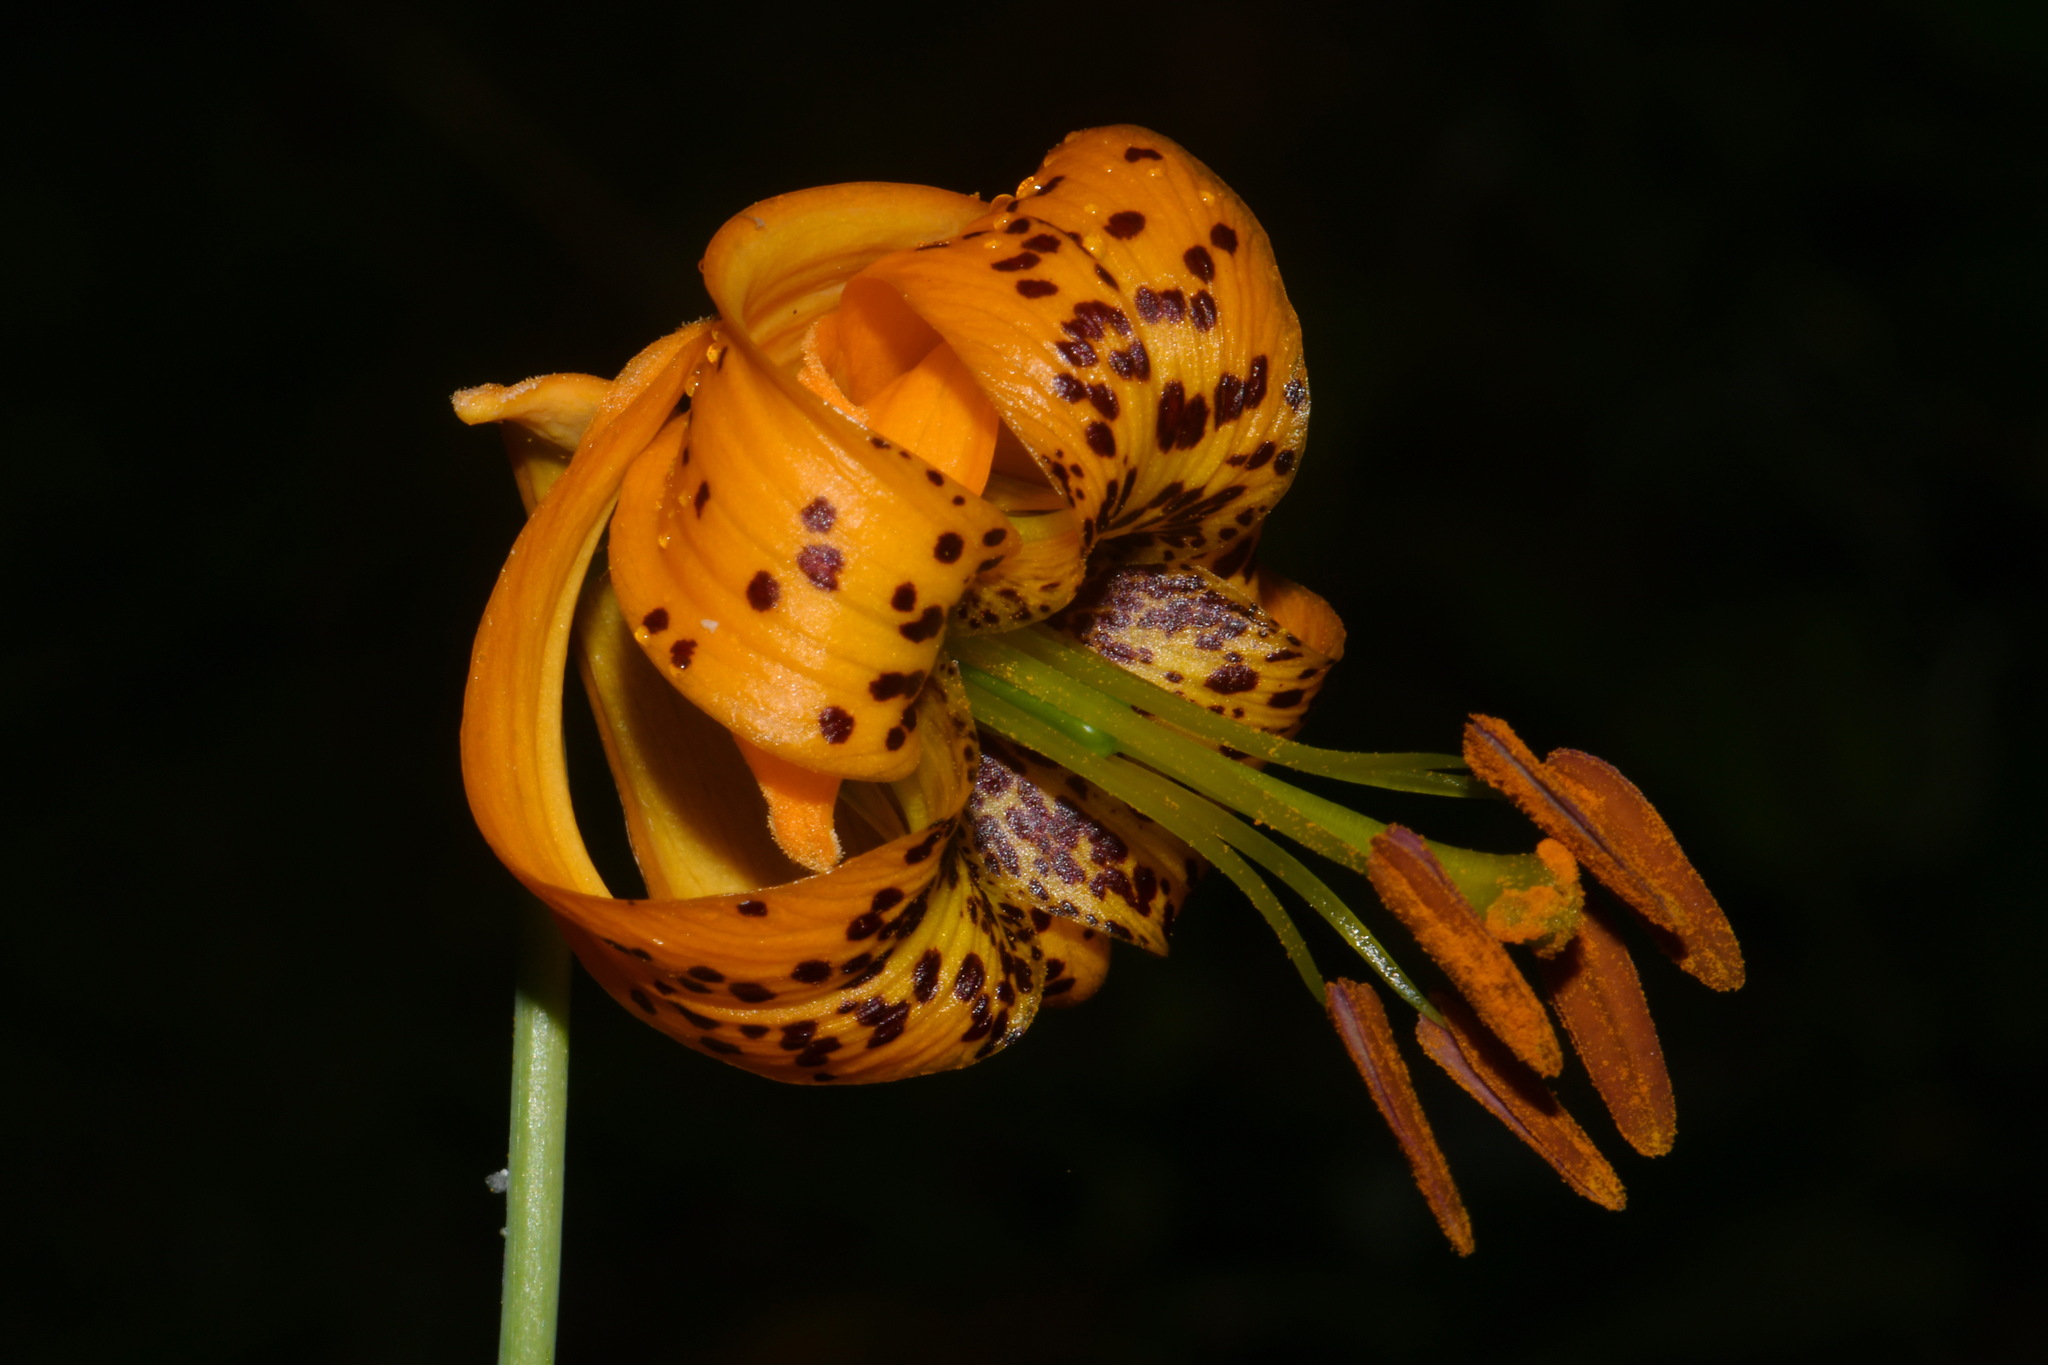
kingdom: Plantae
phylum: Tracheophyta
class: Liliopsida
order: Liliales
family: Liliaceae
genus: Lilium
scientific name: Lilium columbianum
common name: Columbia lily
